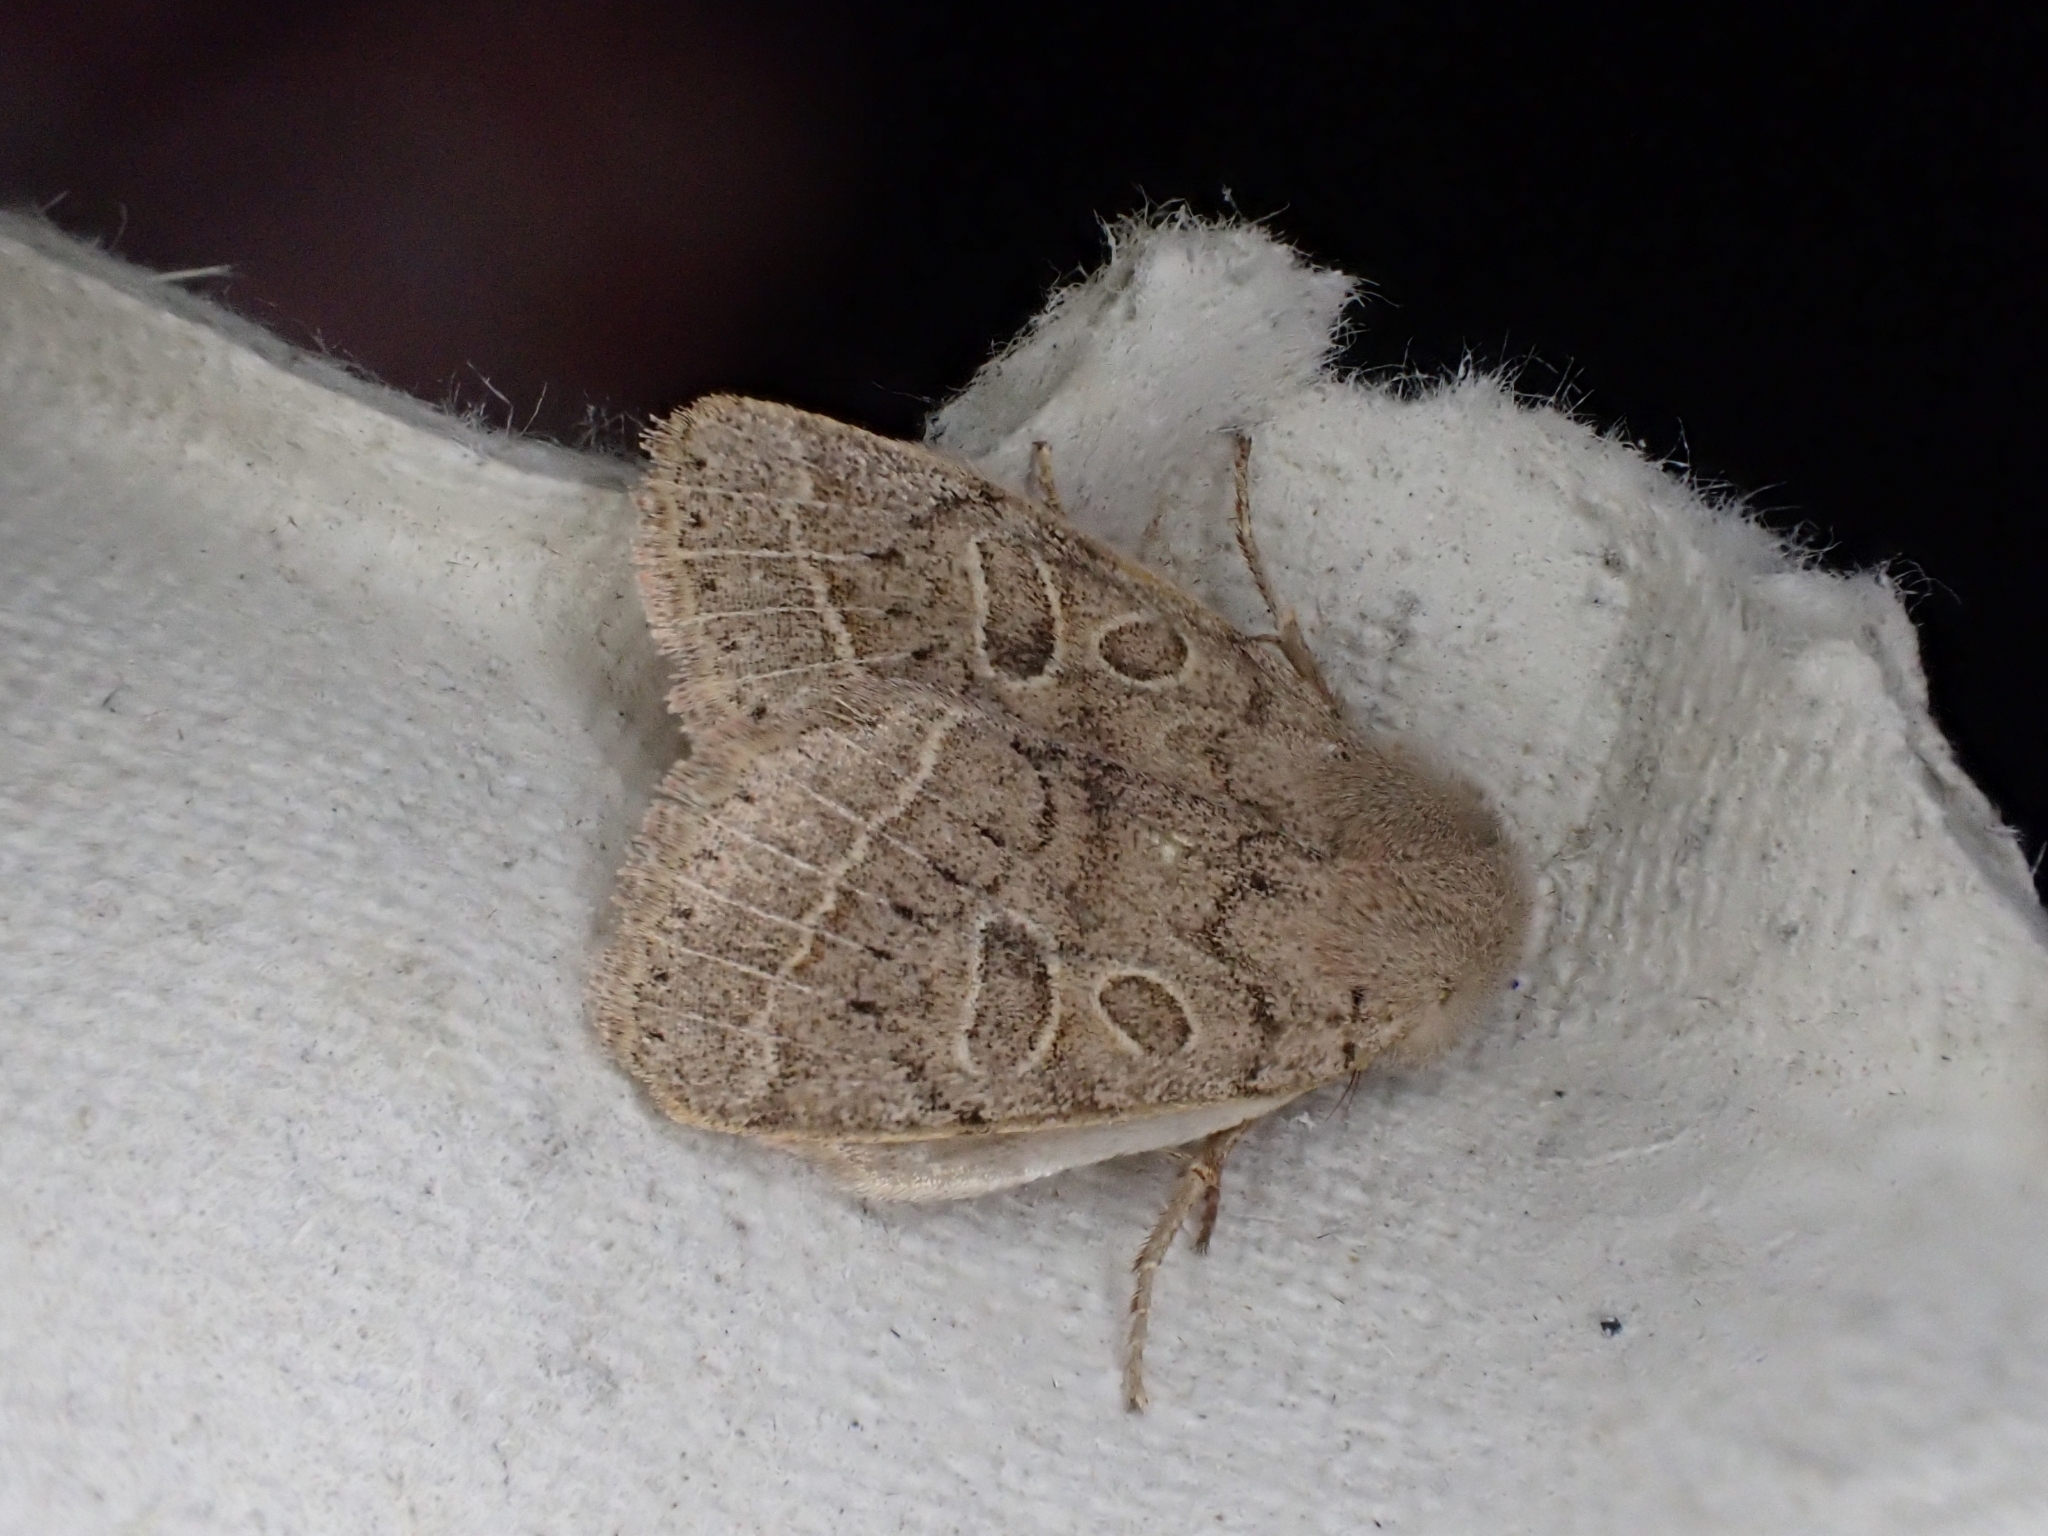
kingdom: Animalia
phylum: Arthropoda
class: Insecta
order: Lepidoptera
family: Noctuidae
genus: Orthosia
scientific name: Orthosia cerasi
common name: Common quaker
